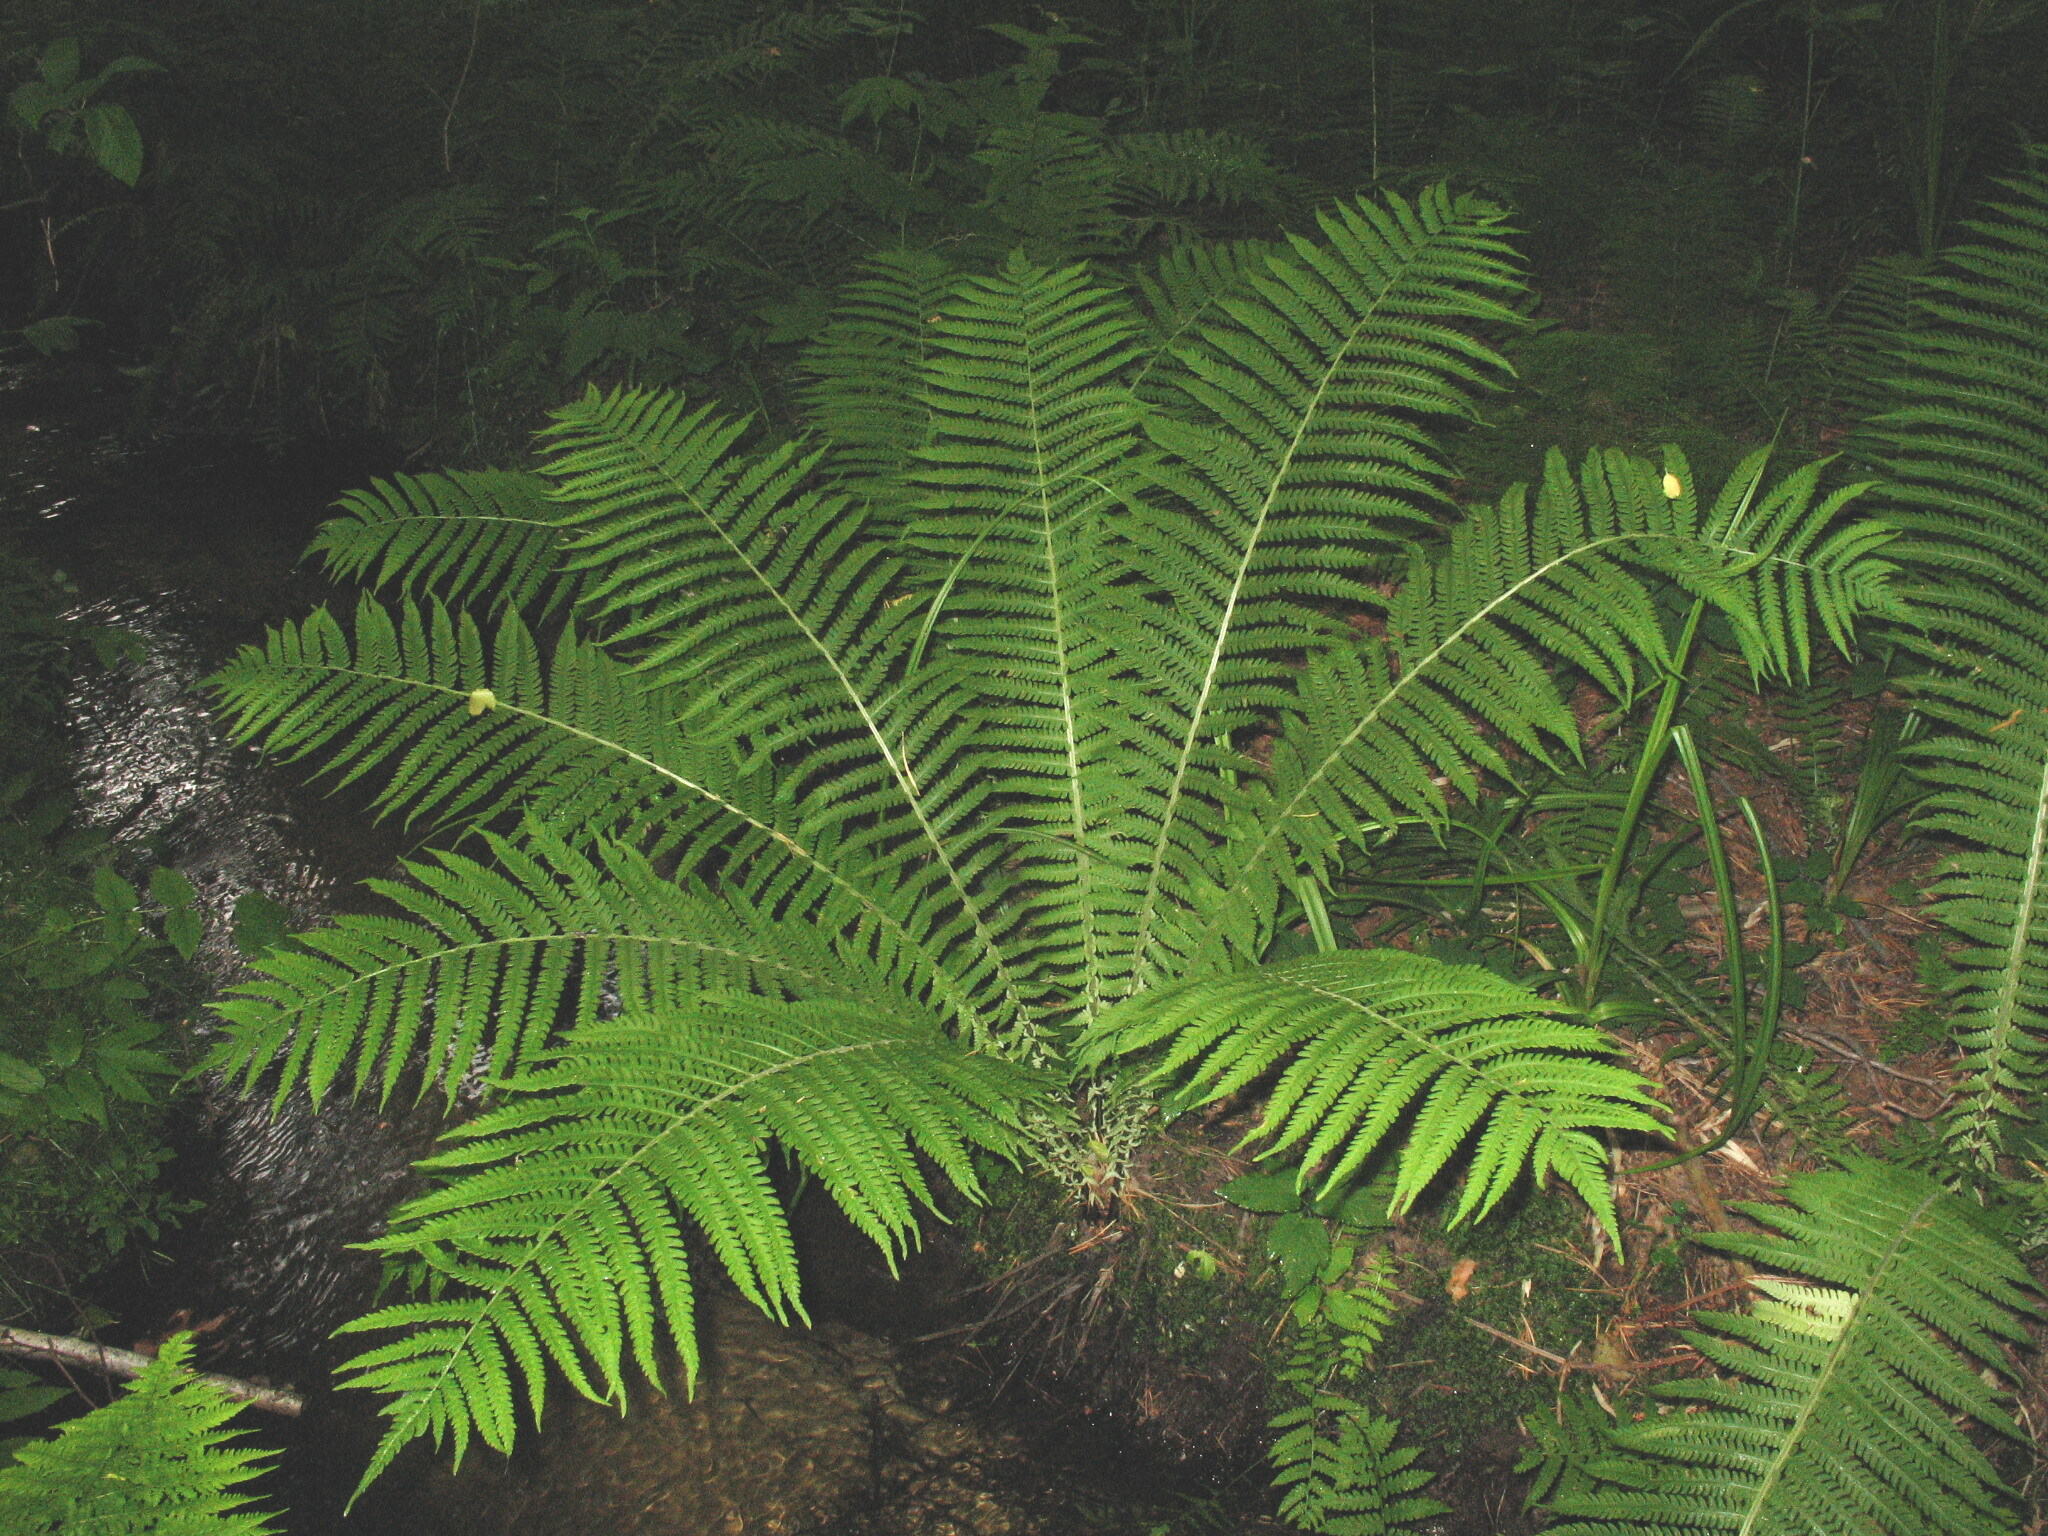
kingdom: Plantae
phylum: Tracheophyta
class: Polypodiopsida
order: Polypodiales
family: Onocleaceae
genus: Matteuccia
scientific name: Matteuccia struthiopteris
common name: Ostrich fern
